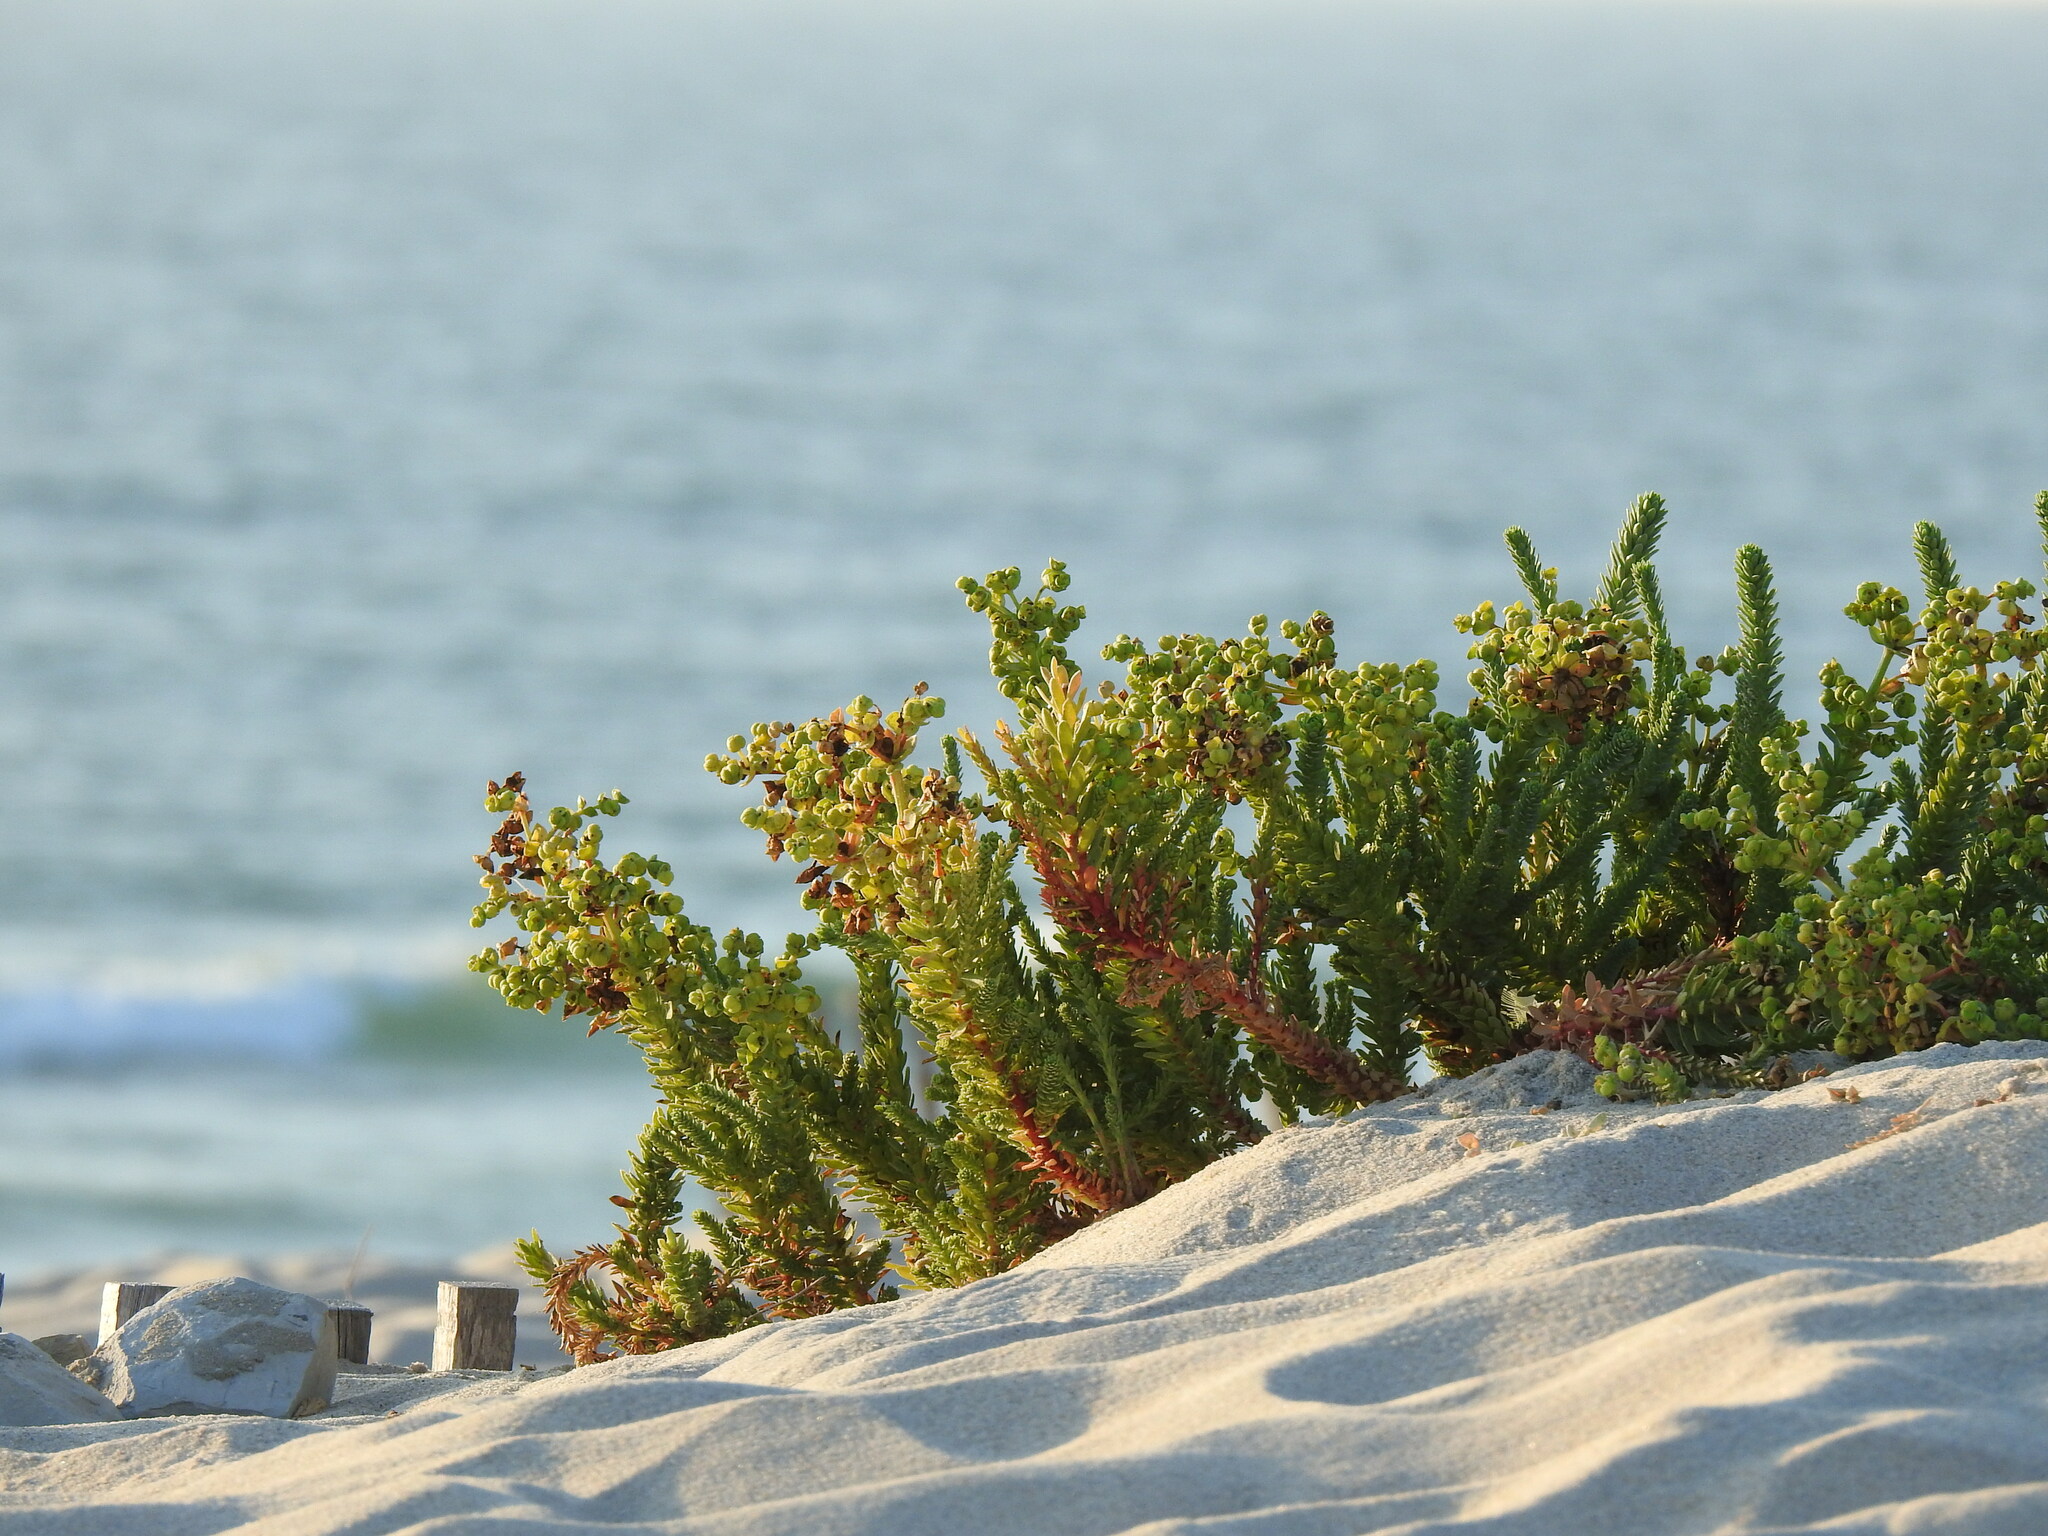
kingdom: Plantae
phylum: Tracheophyta
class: Magnoliopsida
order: Malpighiales
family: Euphorbiaceae
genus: Euphorbia
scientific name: Euphorbia paralias
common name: Sea spurge
